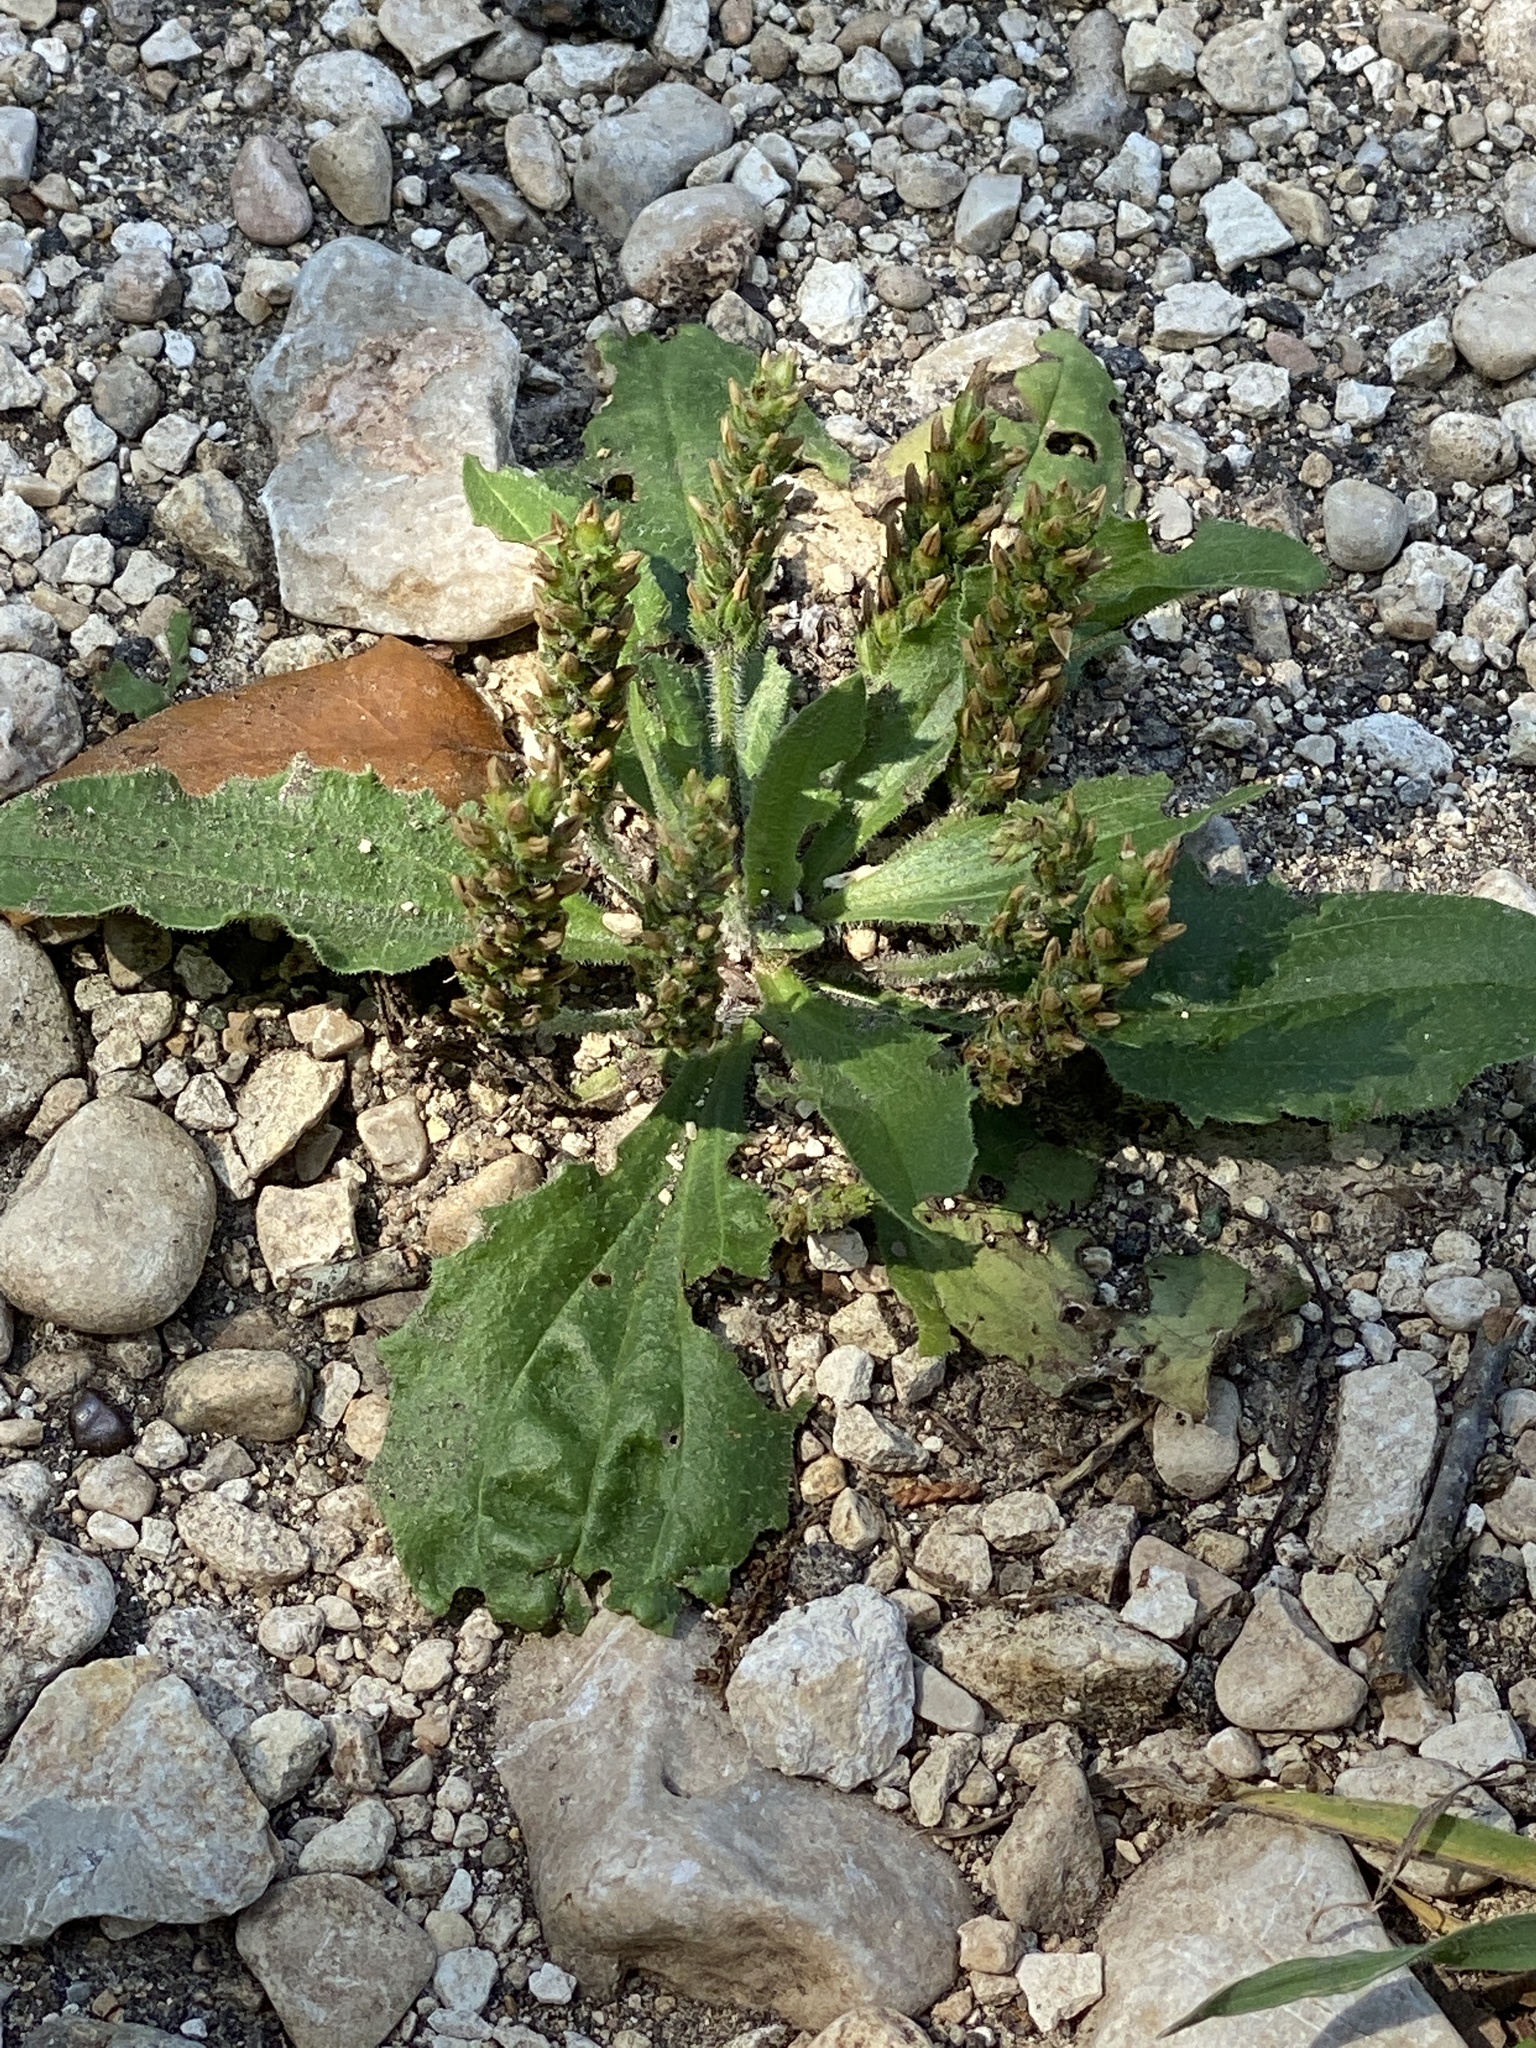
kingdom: Plantae
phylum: Tracheophyta
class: Magnoliopsida
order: Lamiales
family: Plantaginaceae
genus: Plantago
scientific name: Plantago rhodosperma
